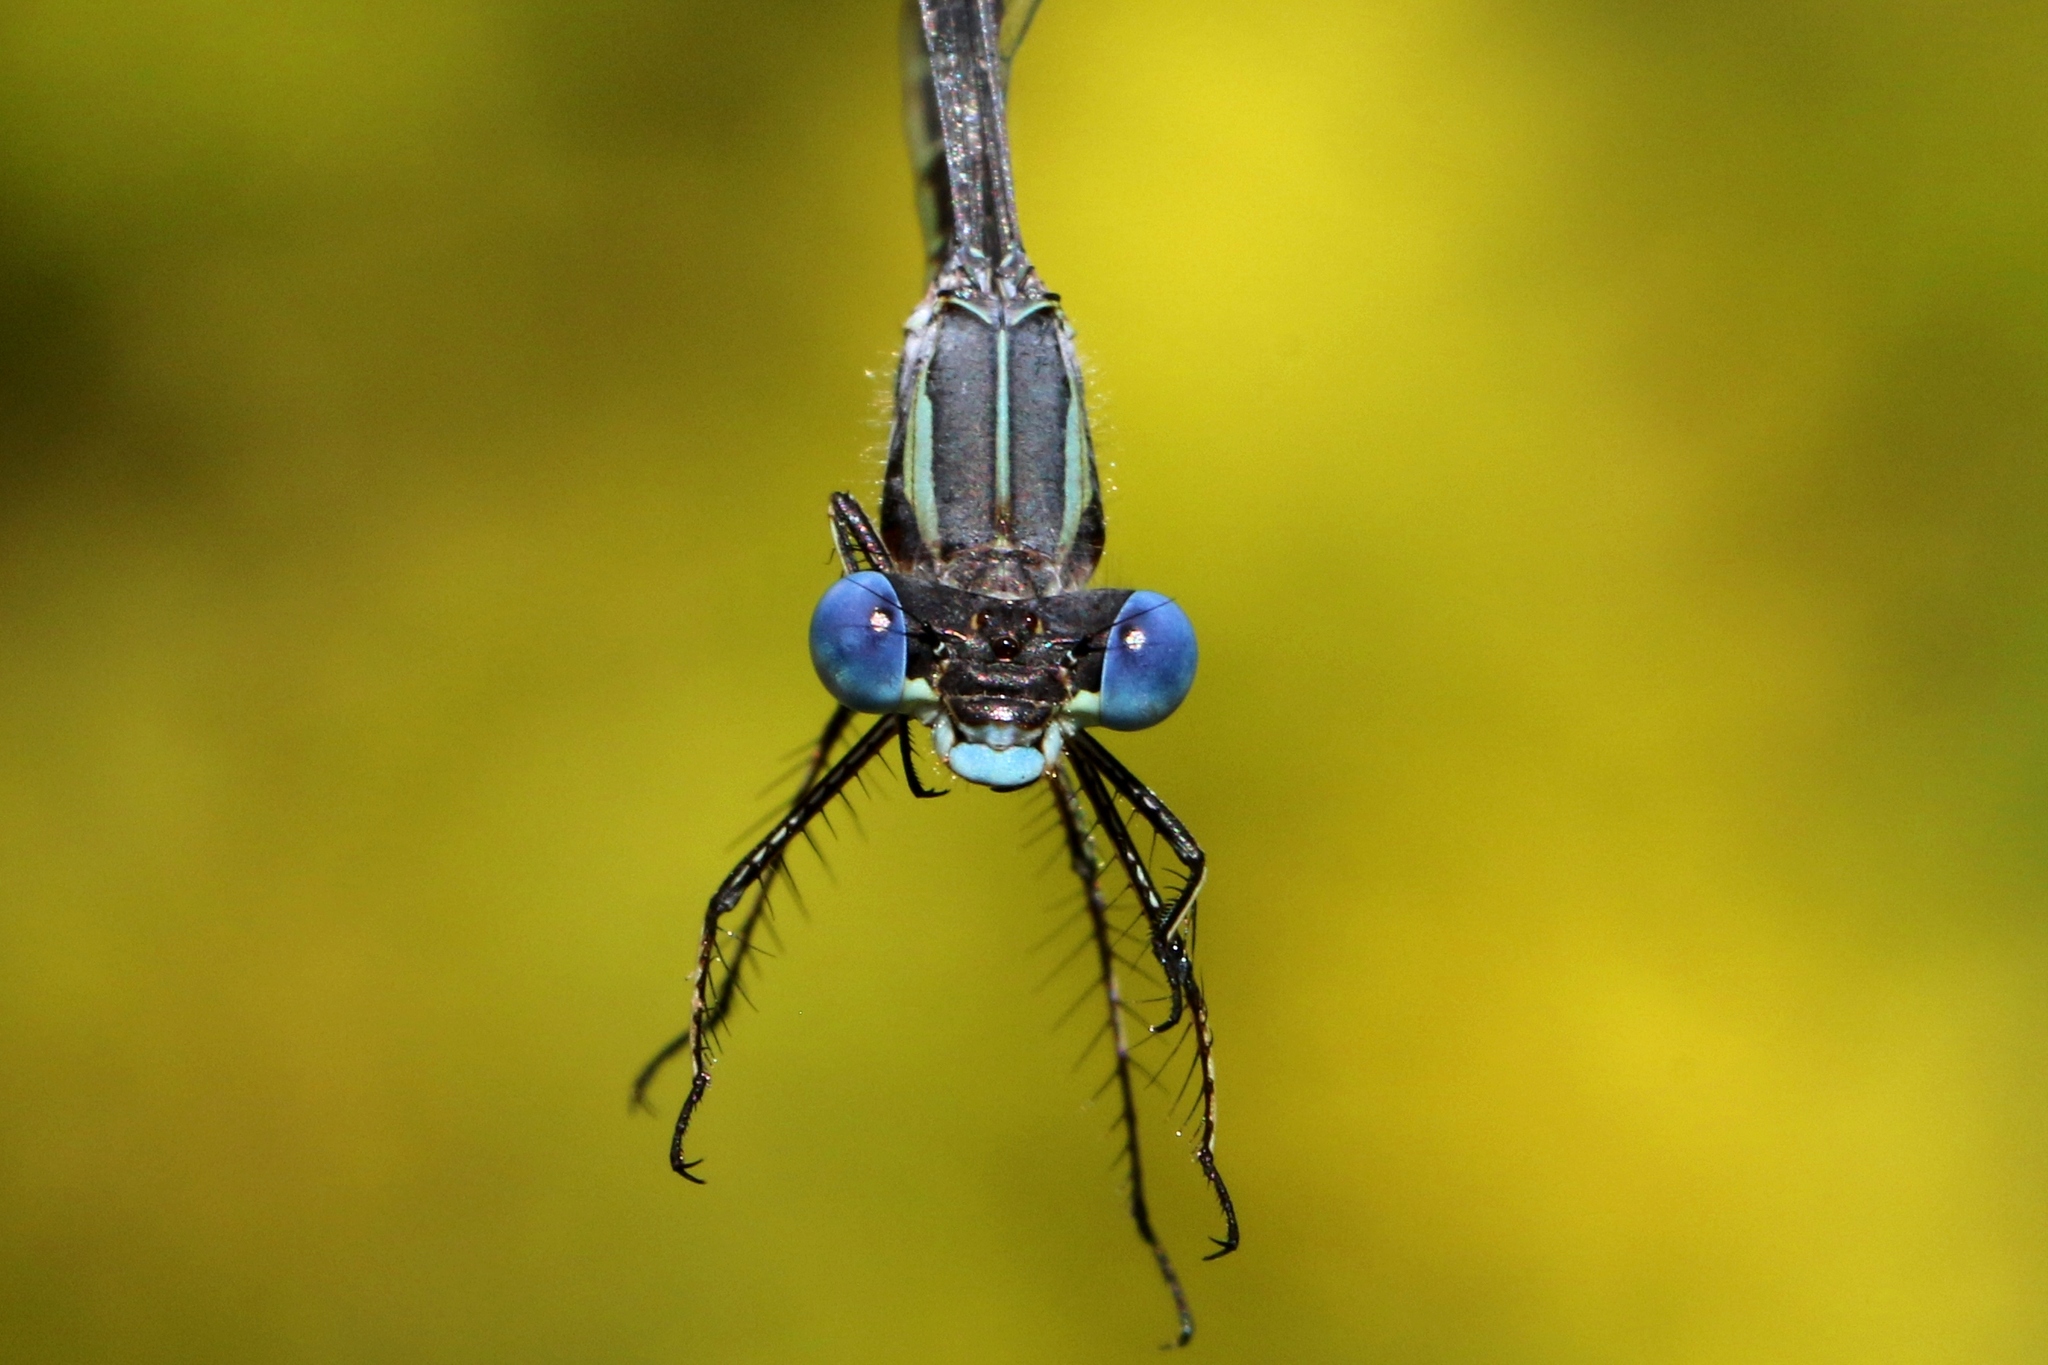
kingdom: Animalia
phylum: Arthropoda
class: Insecta
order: Odonata
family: Lestidae
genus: Lestes
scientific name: Lestes forcipatus
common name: Sweetflag spreadwing
